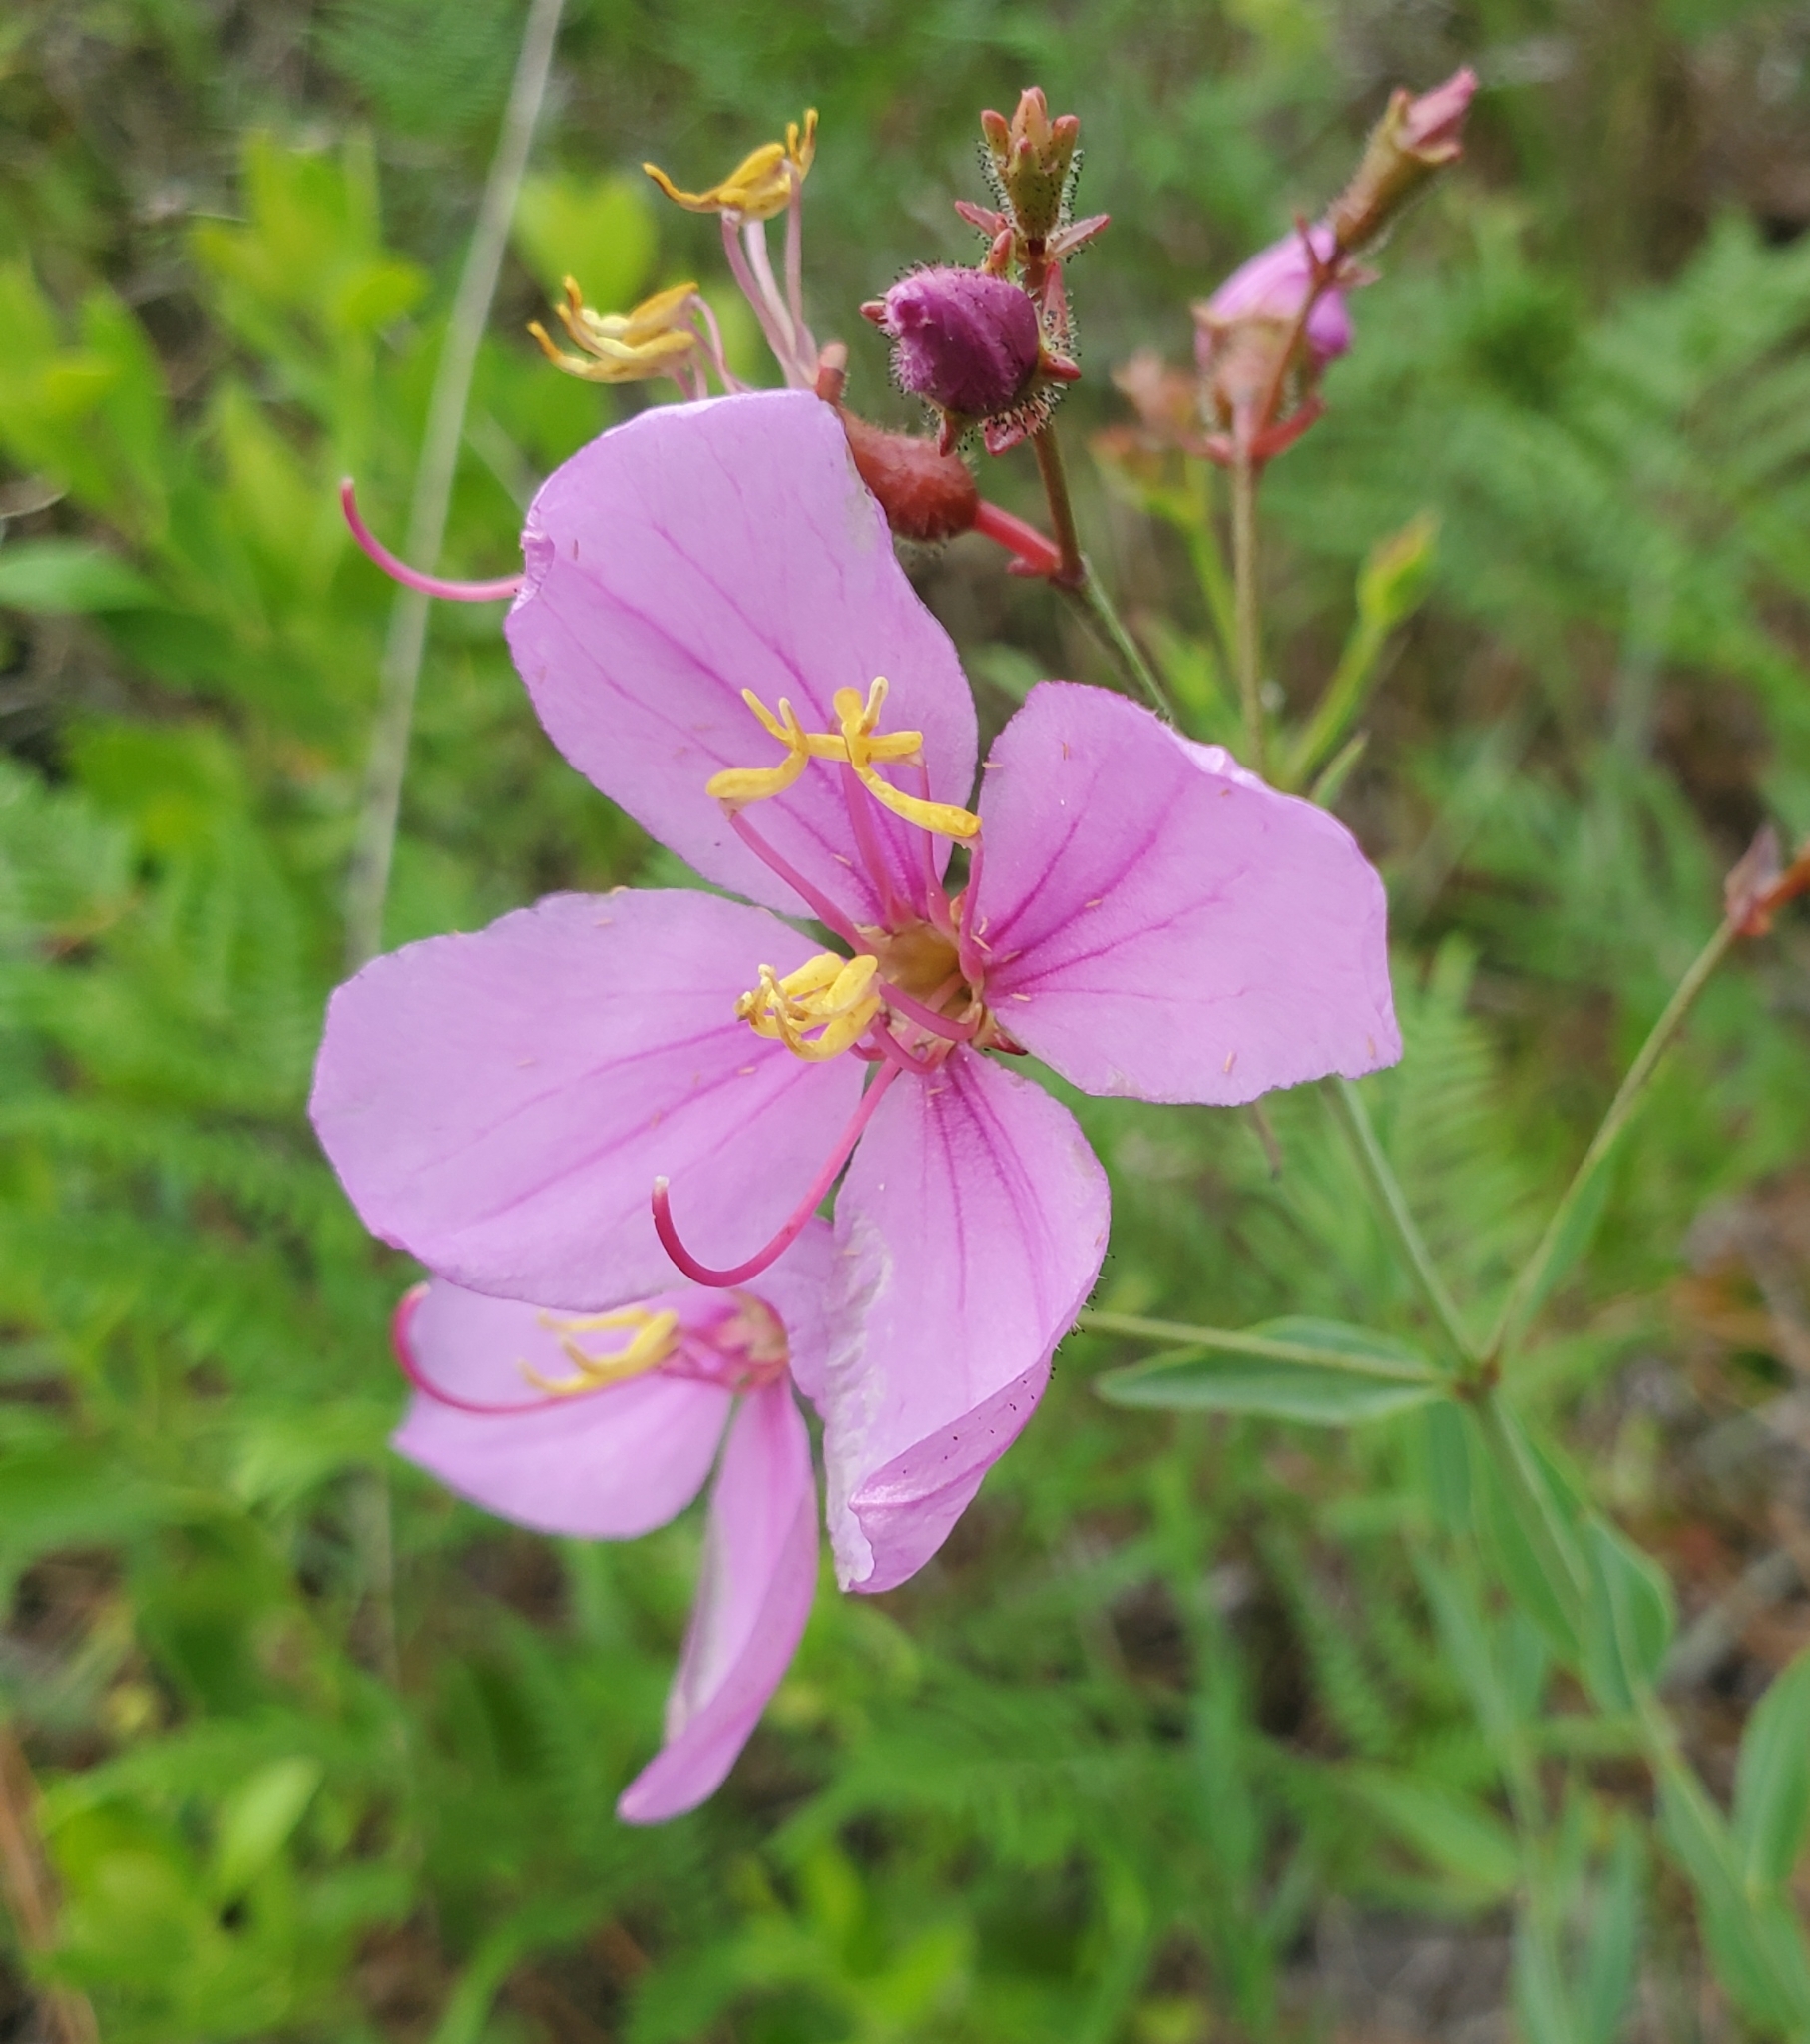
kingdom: Plantae
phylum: Tracheophyta
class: Magnoliopsida
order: Myrtales
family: Melastomataceae
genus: Rhexia
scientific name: Rhexia alifanus
